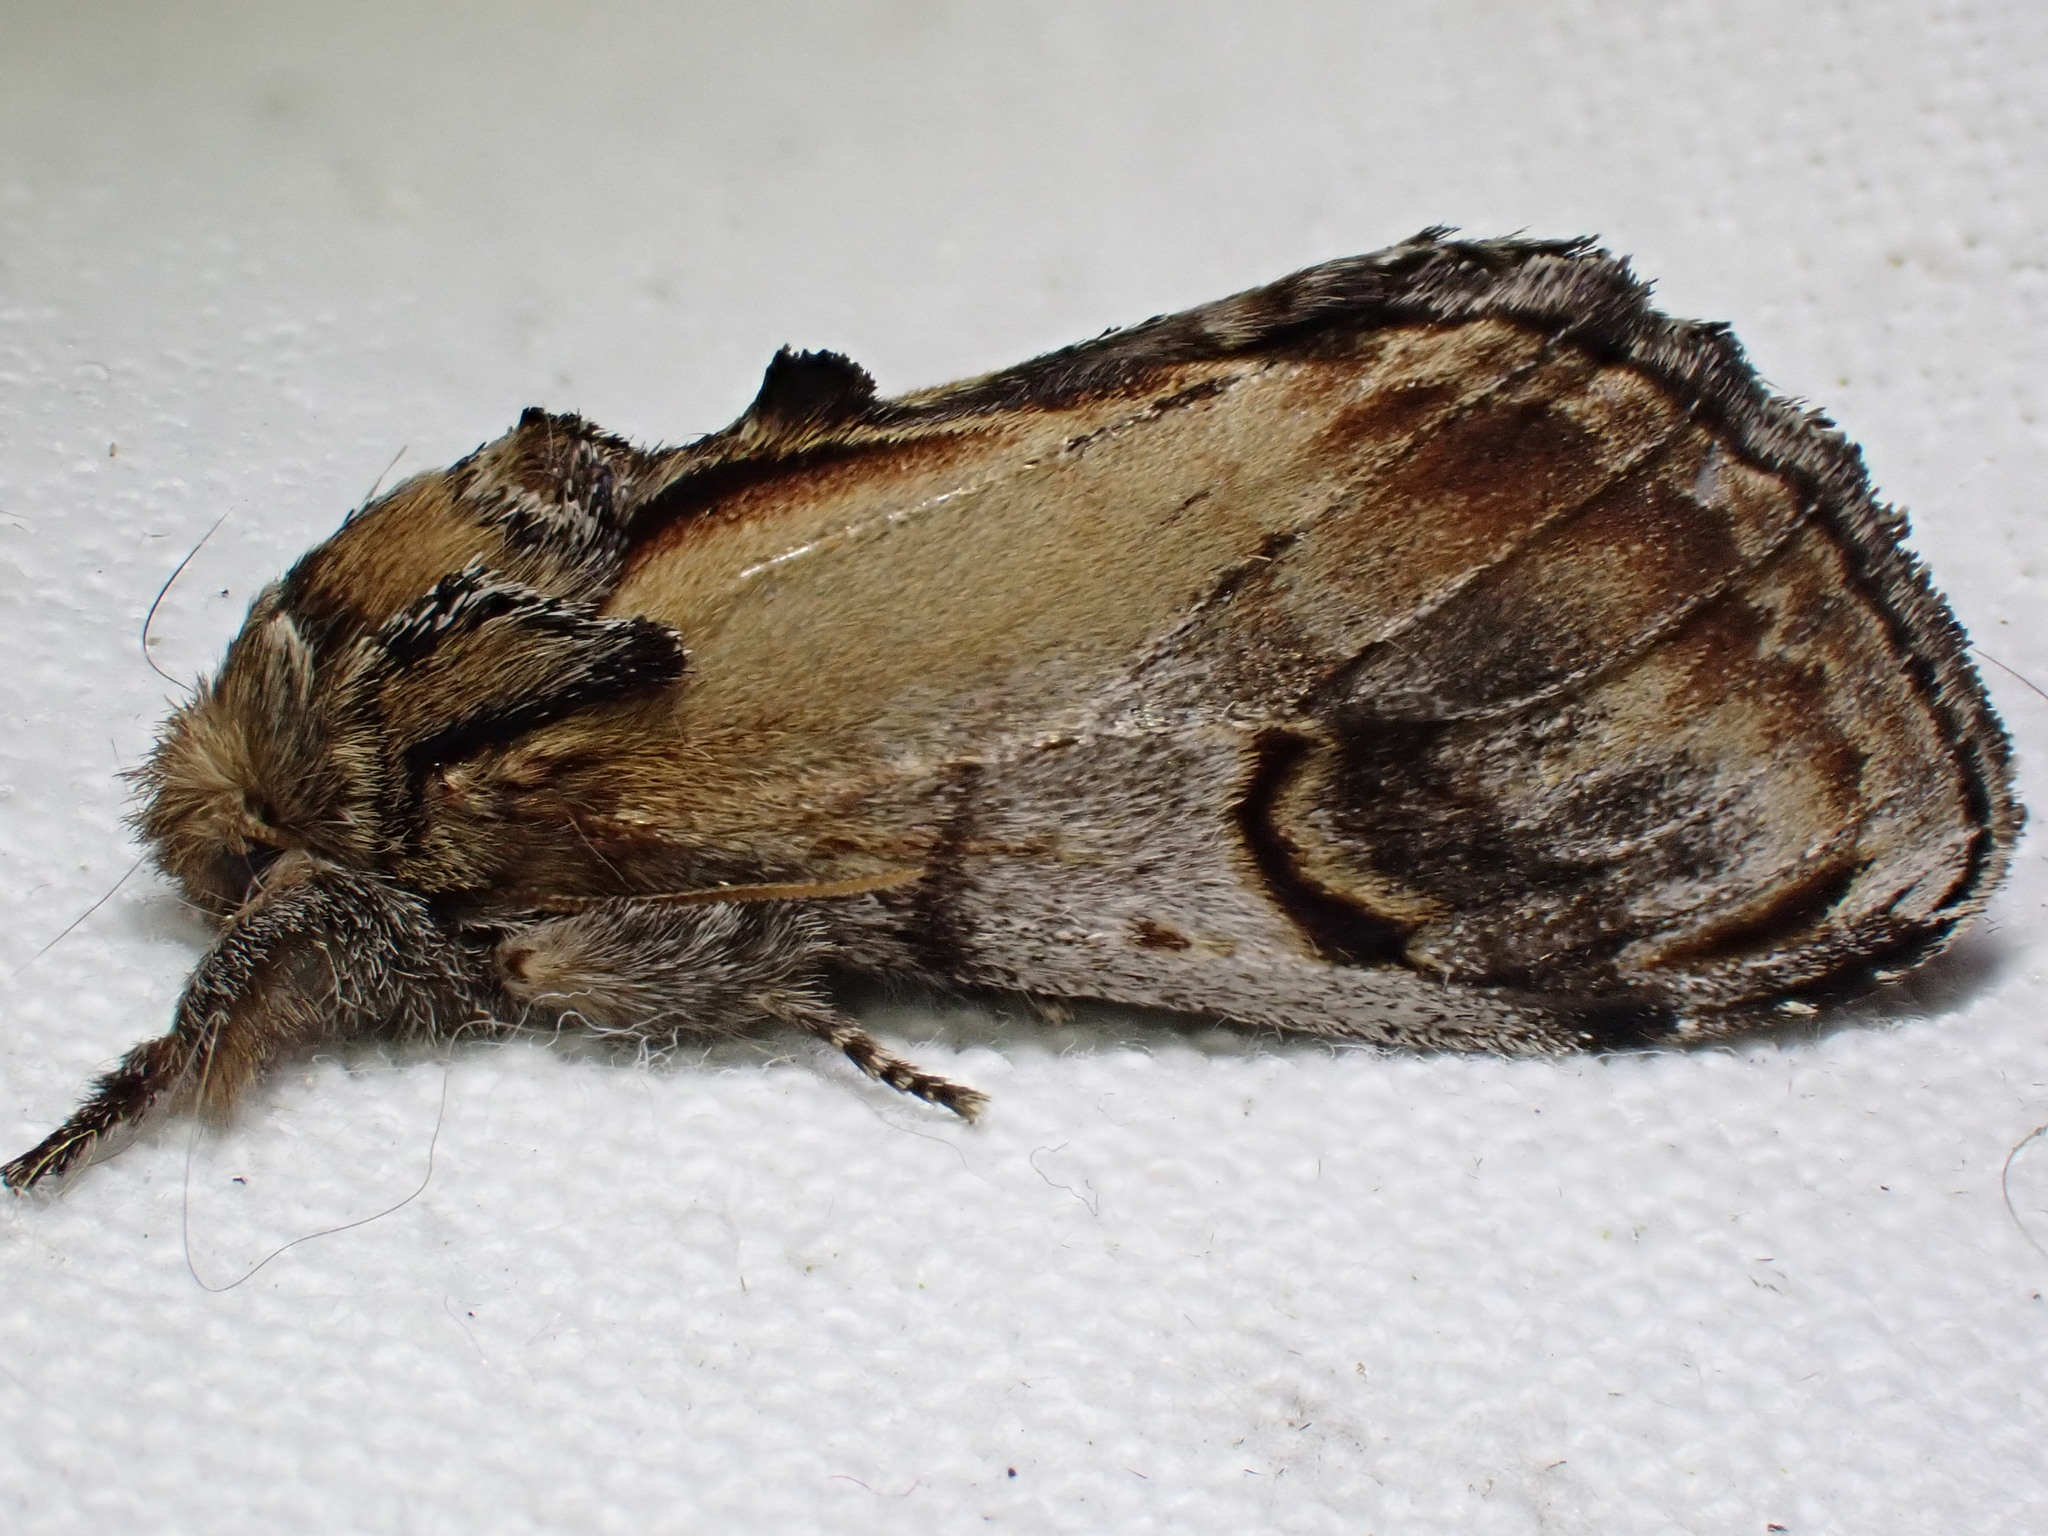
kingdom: Animalia
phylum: Arthropoda
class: Insecta
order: Lepidoptera
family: Notodontidae
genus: Notodonta
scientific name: Notodonta ziczac
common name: Pebble prominent
